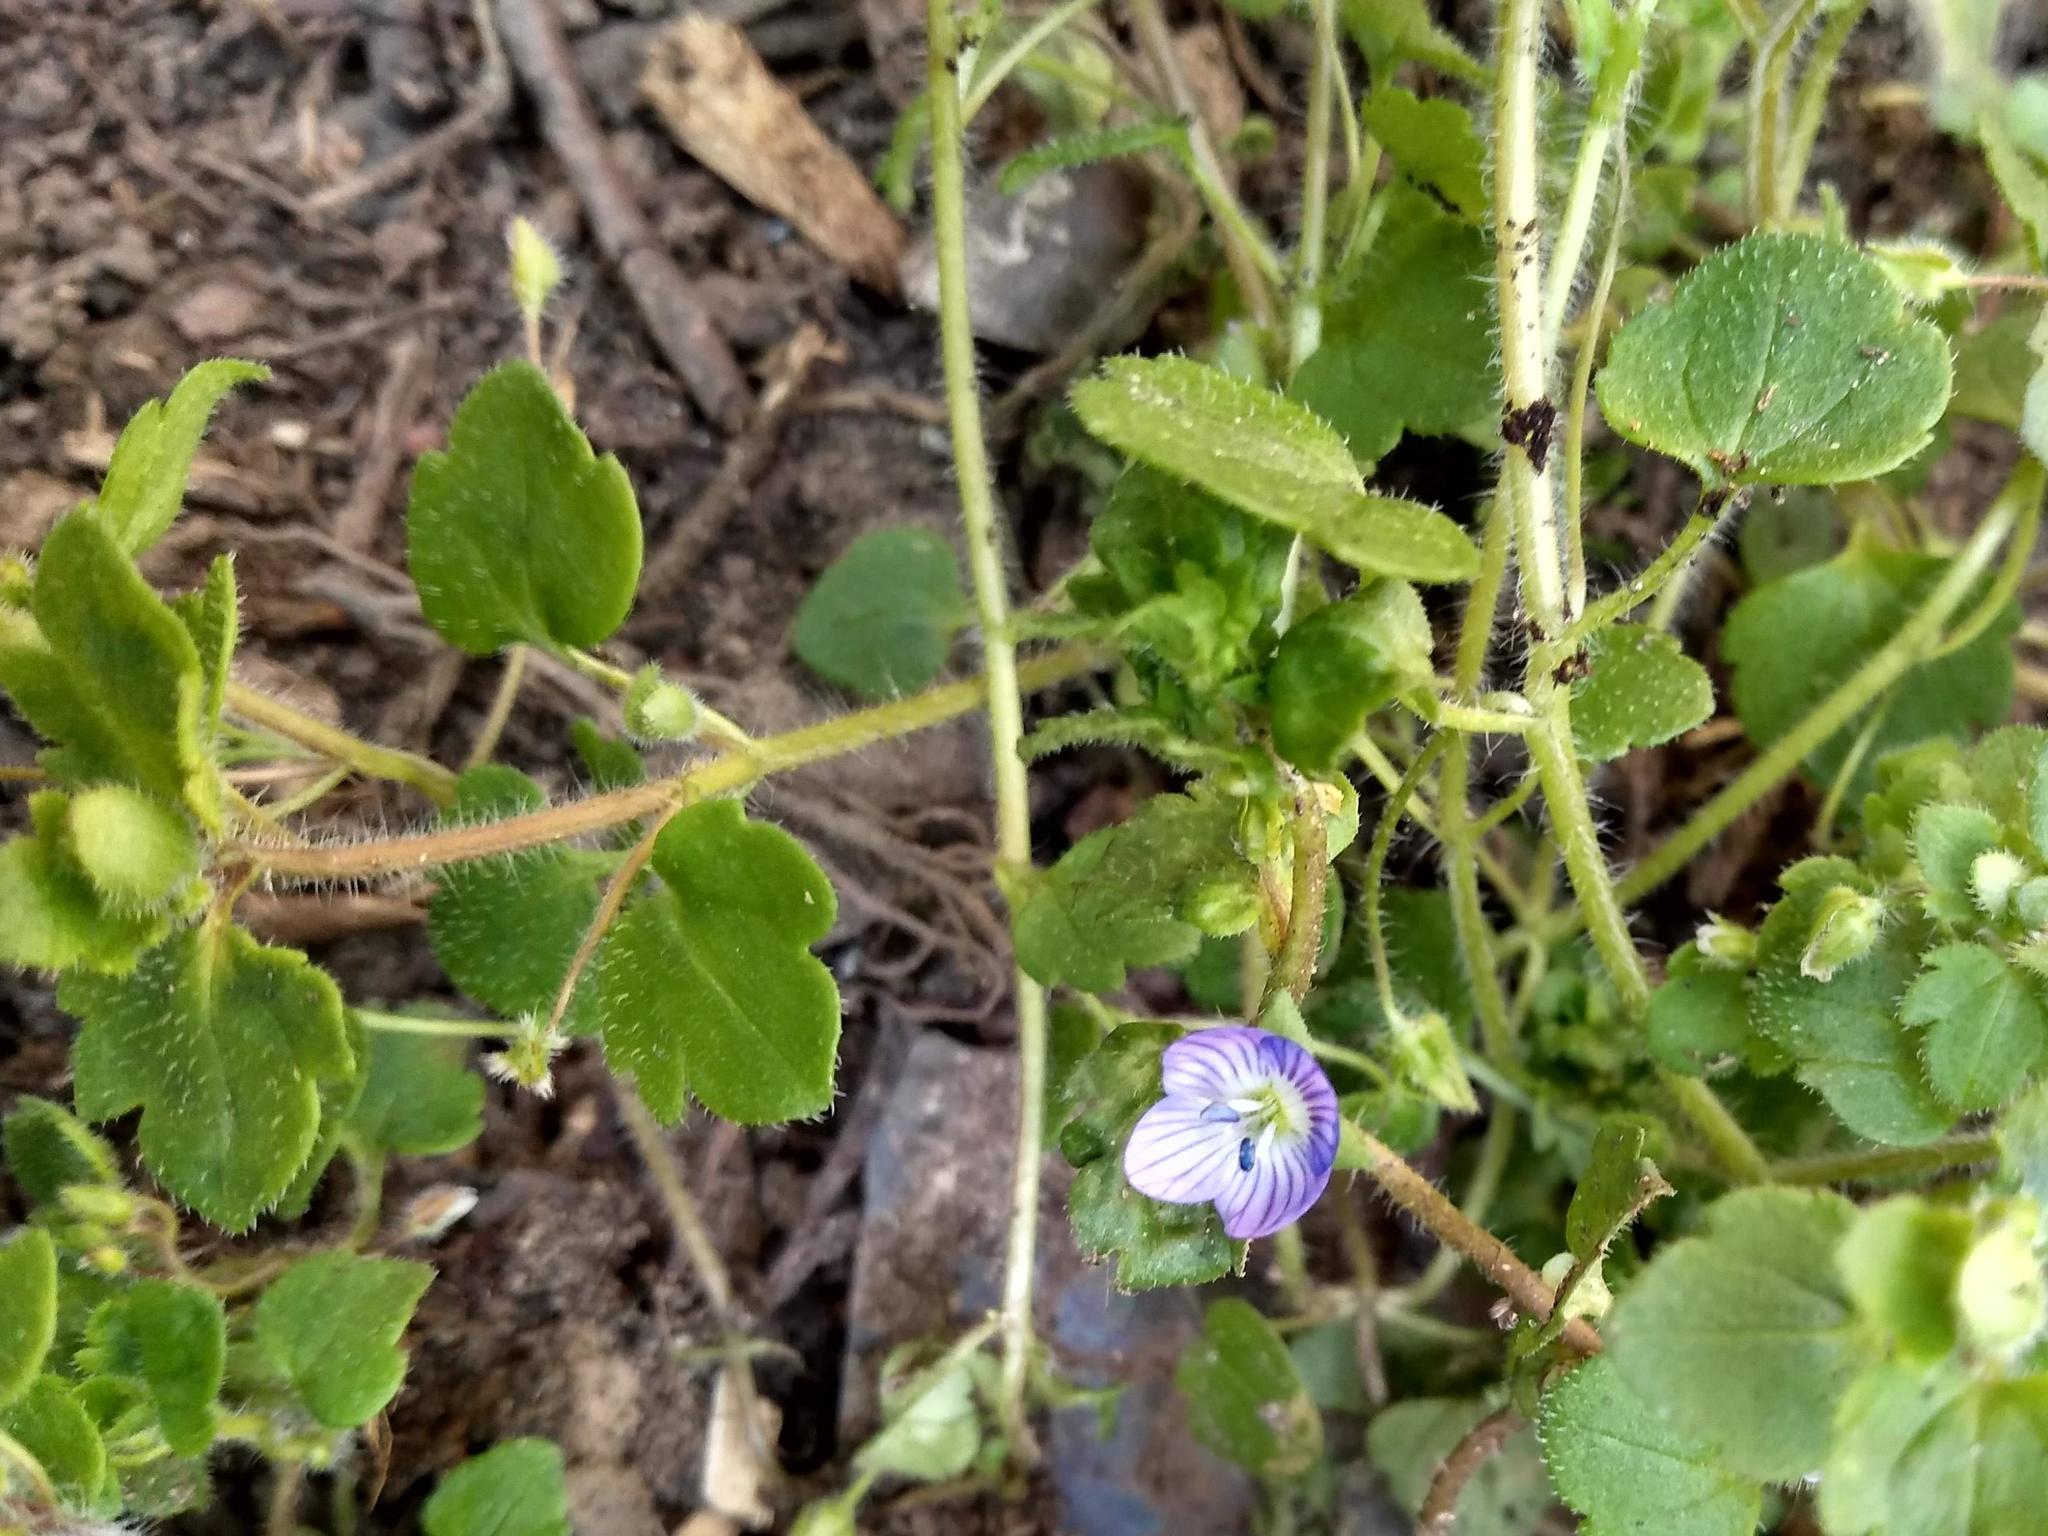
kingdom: Plantae
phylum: Tracheophyta
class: Magnoliopsida
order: Lamiales
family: Plantaginaceae
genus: Veronica
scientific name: Veronica hederifolia
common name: Ivy-leaved speedwell
